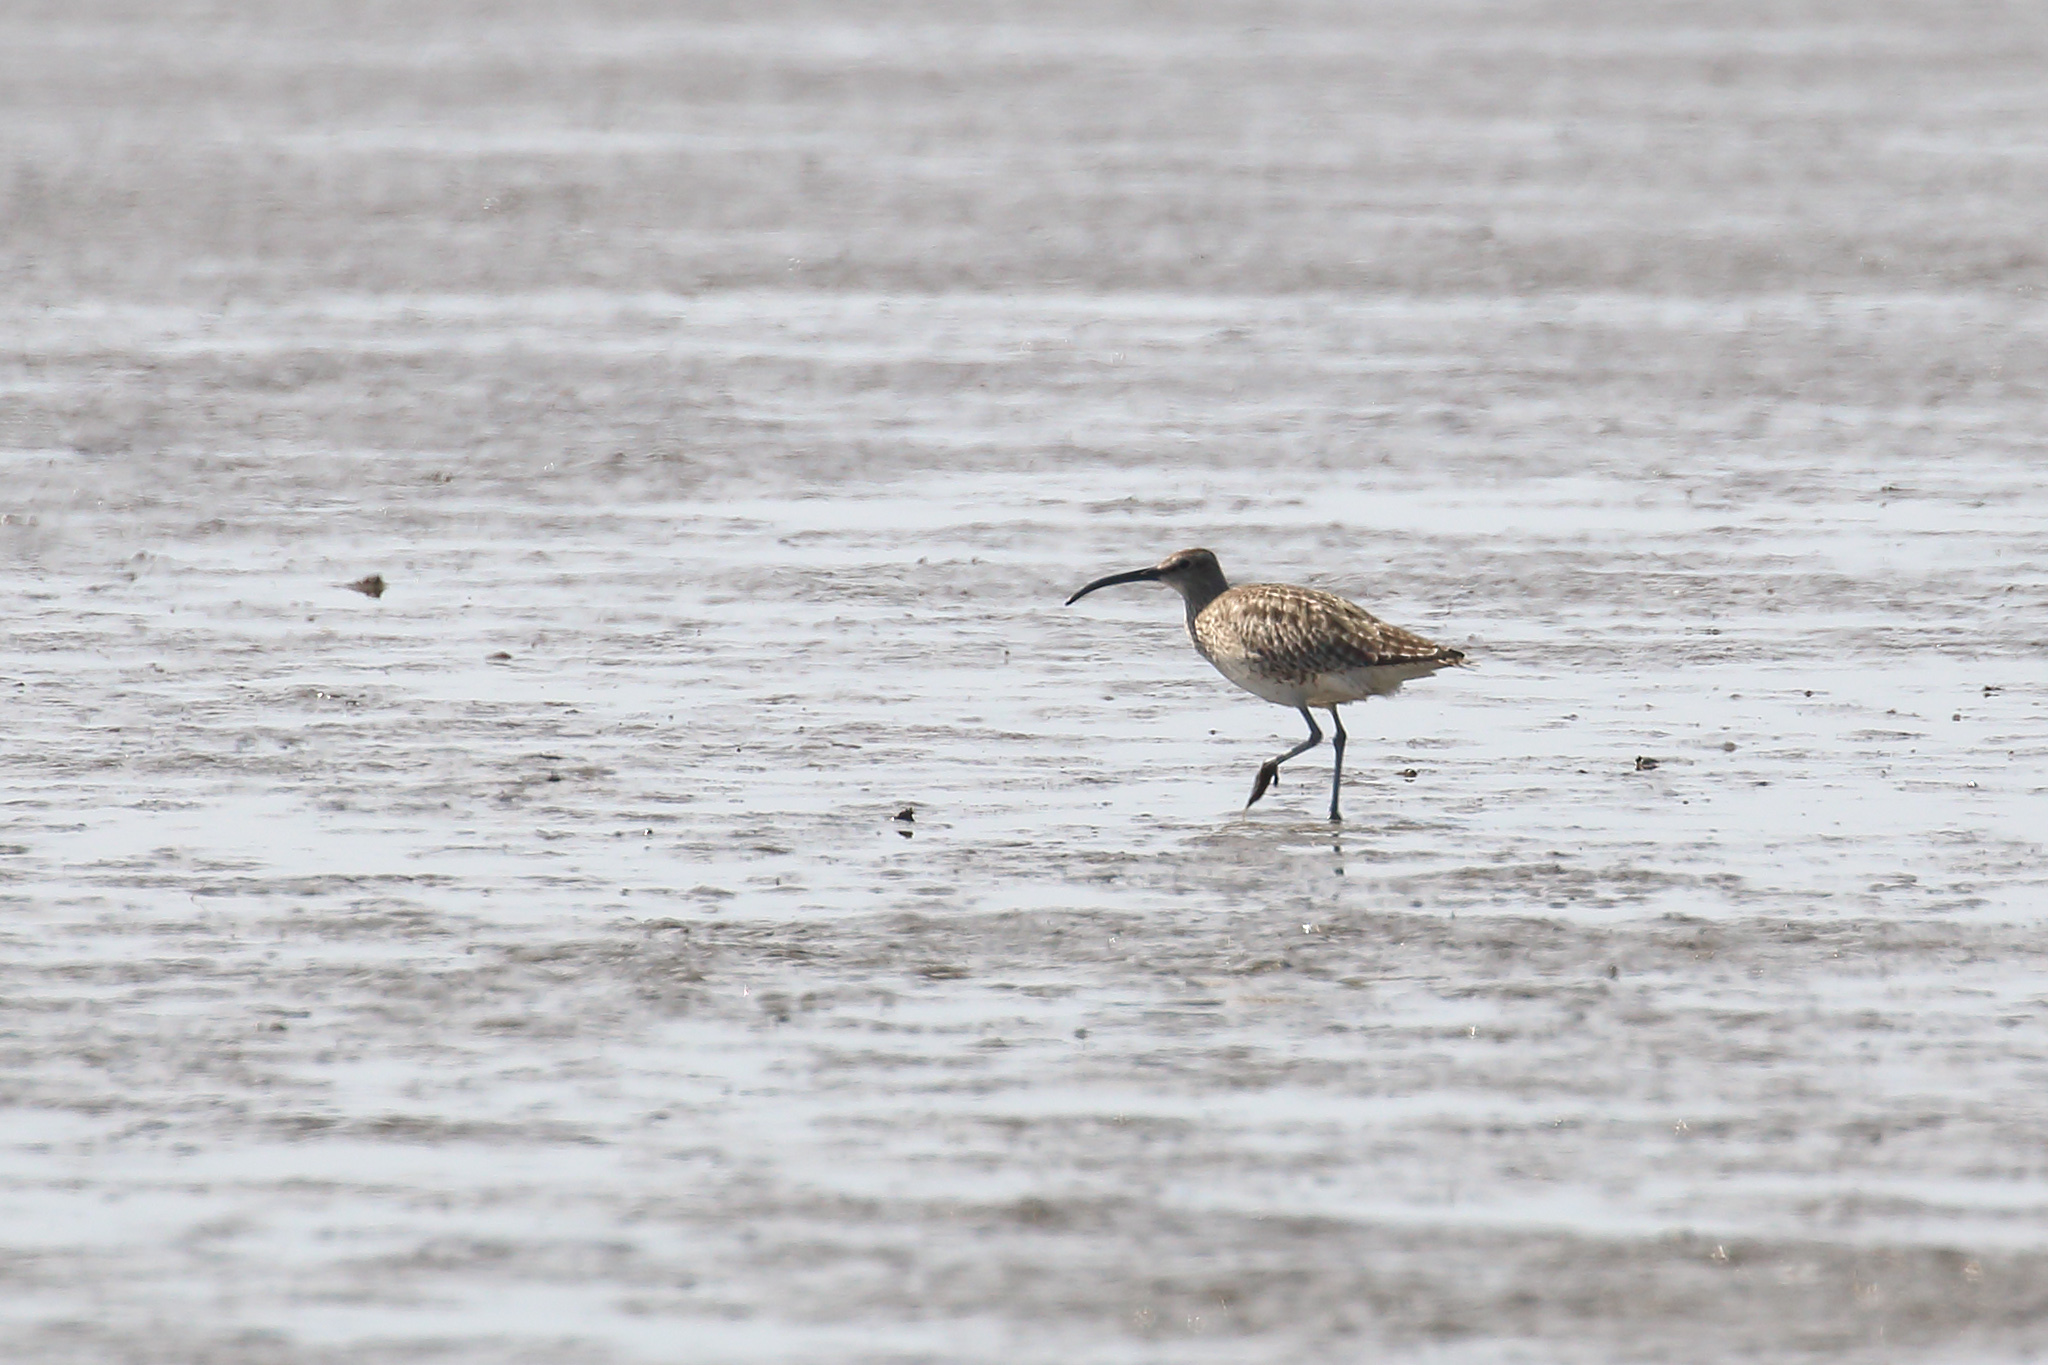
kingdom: Animalia
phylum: Chordata
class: Aves
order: Charadriiformes
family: Scolopacidae
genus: Numenius
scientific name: Numenius phaeopus
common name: Whimbrel
